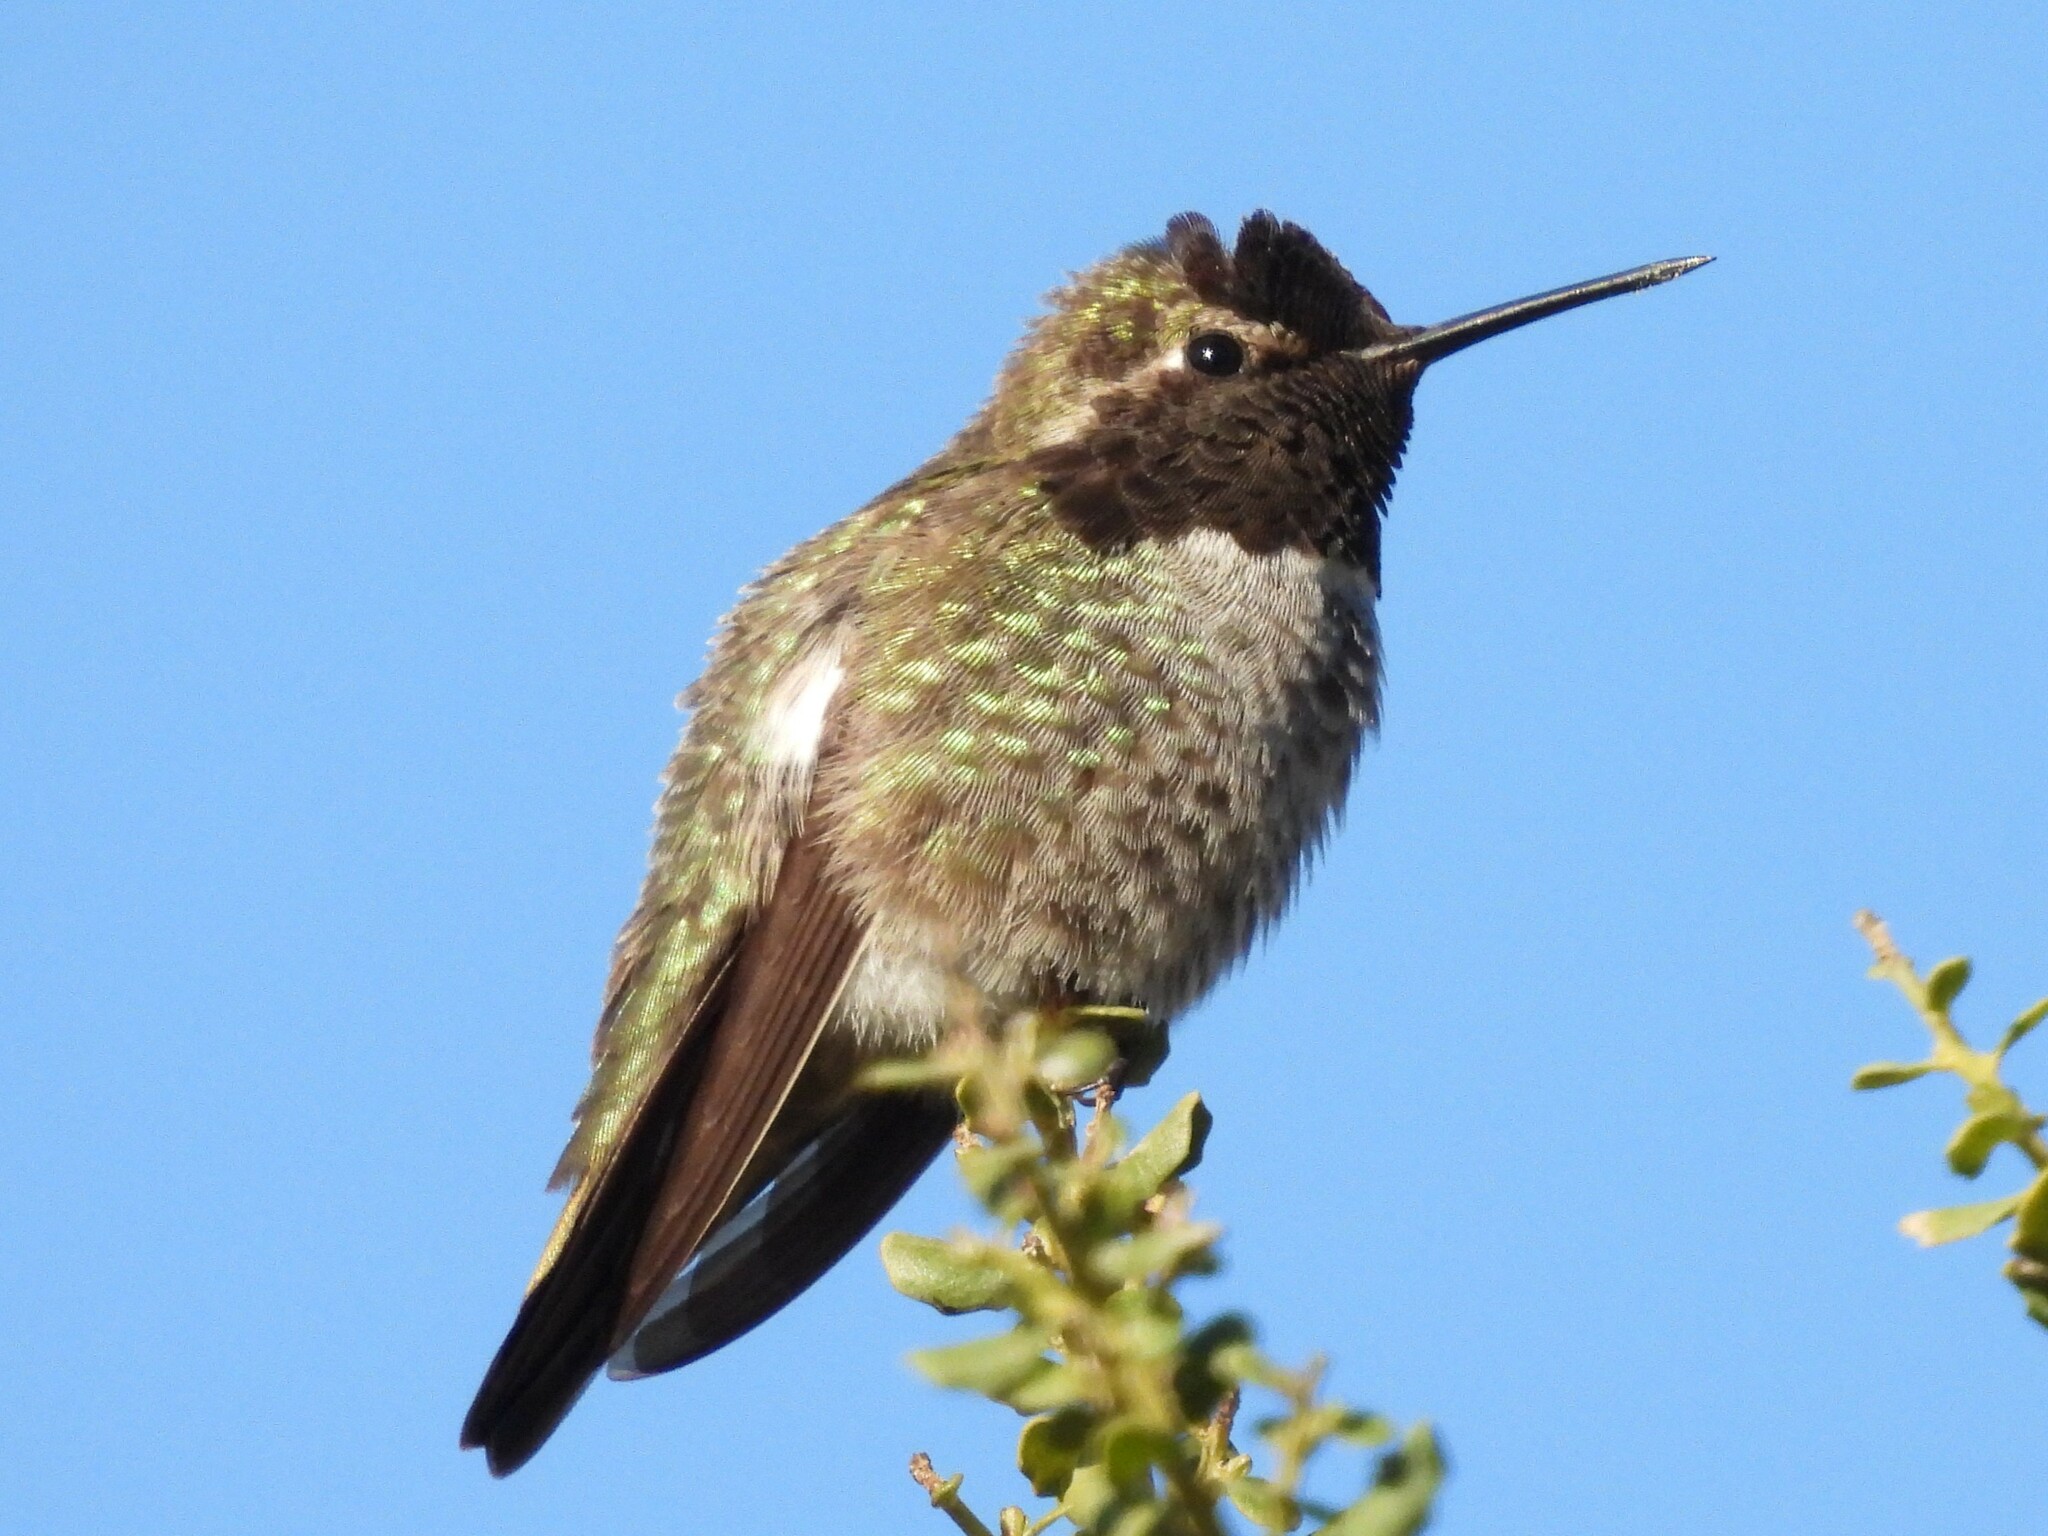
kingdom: Animalia
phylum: Chordata
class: Aves
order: Apodiformes
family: Trochilidae
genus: Calypte
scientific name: Calypte anna
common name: Anna's hummingbird
